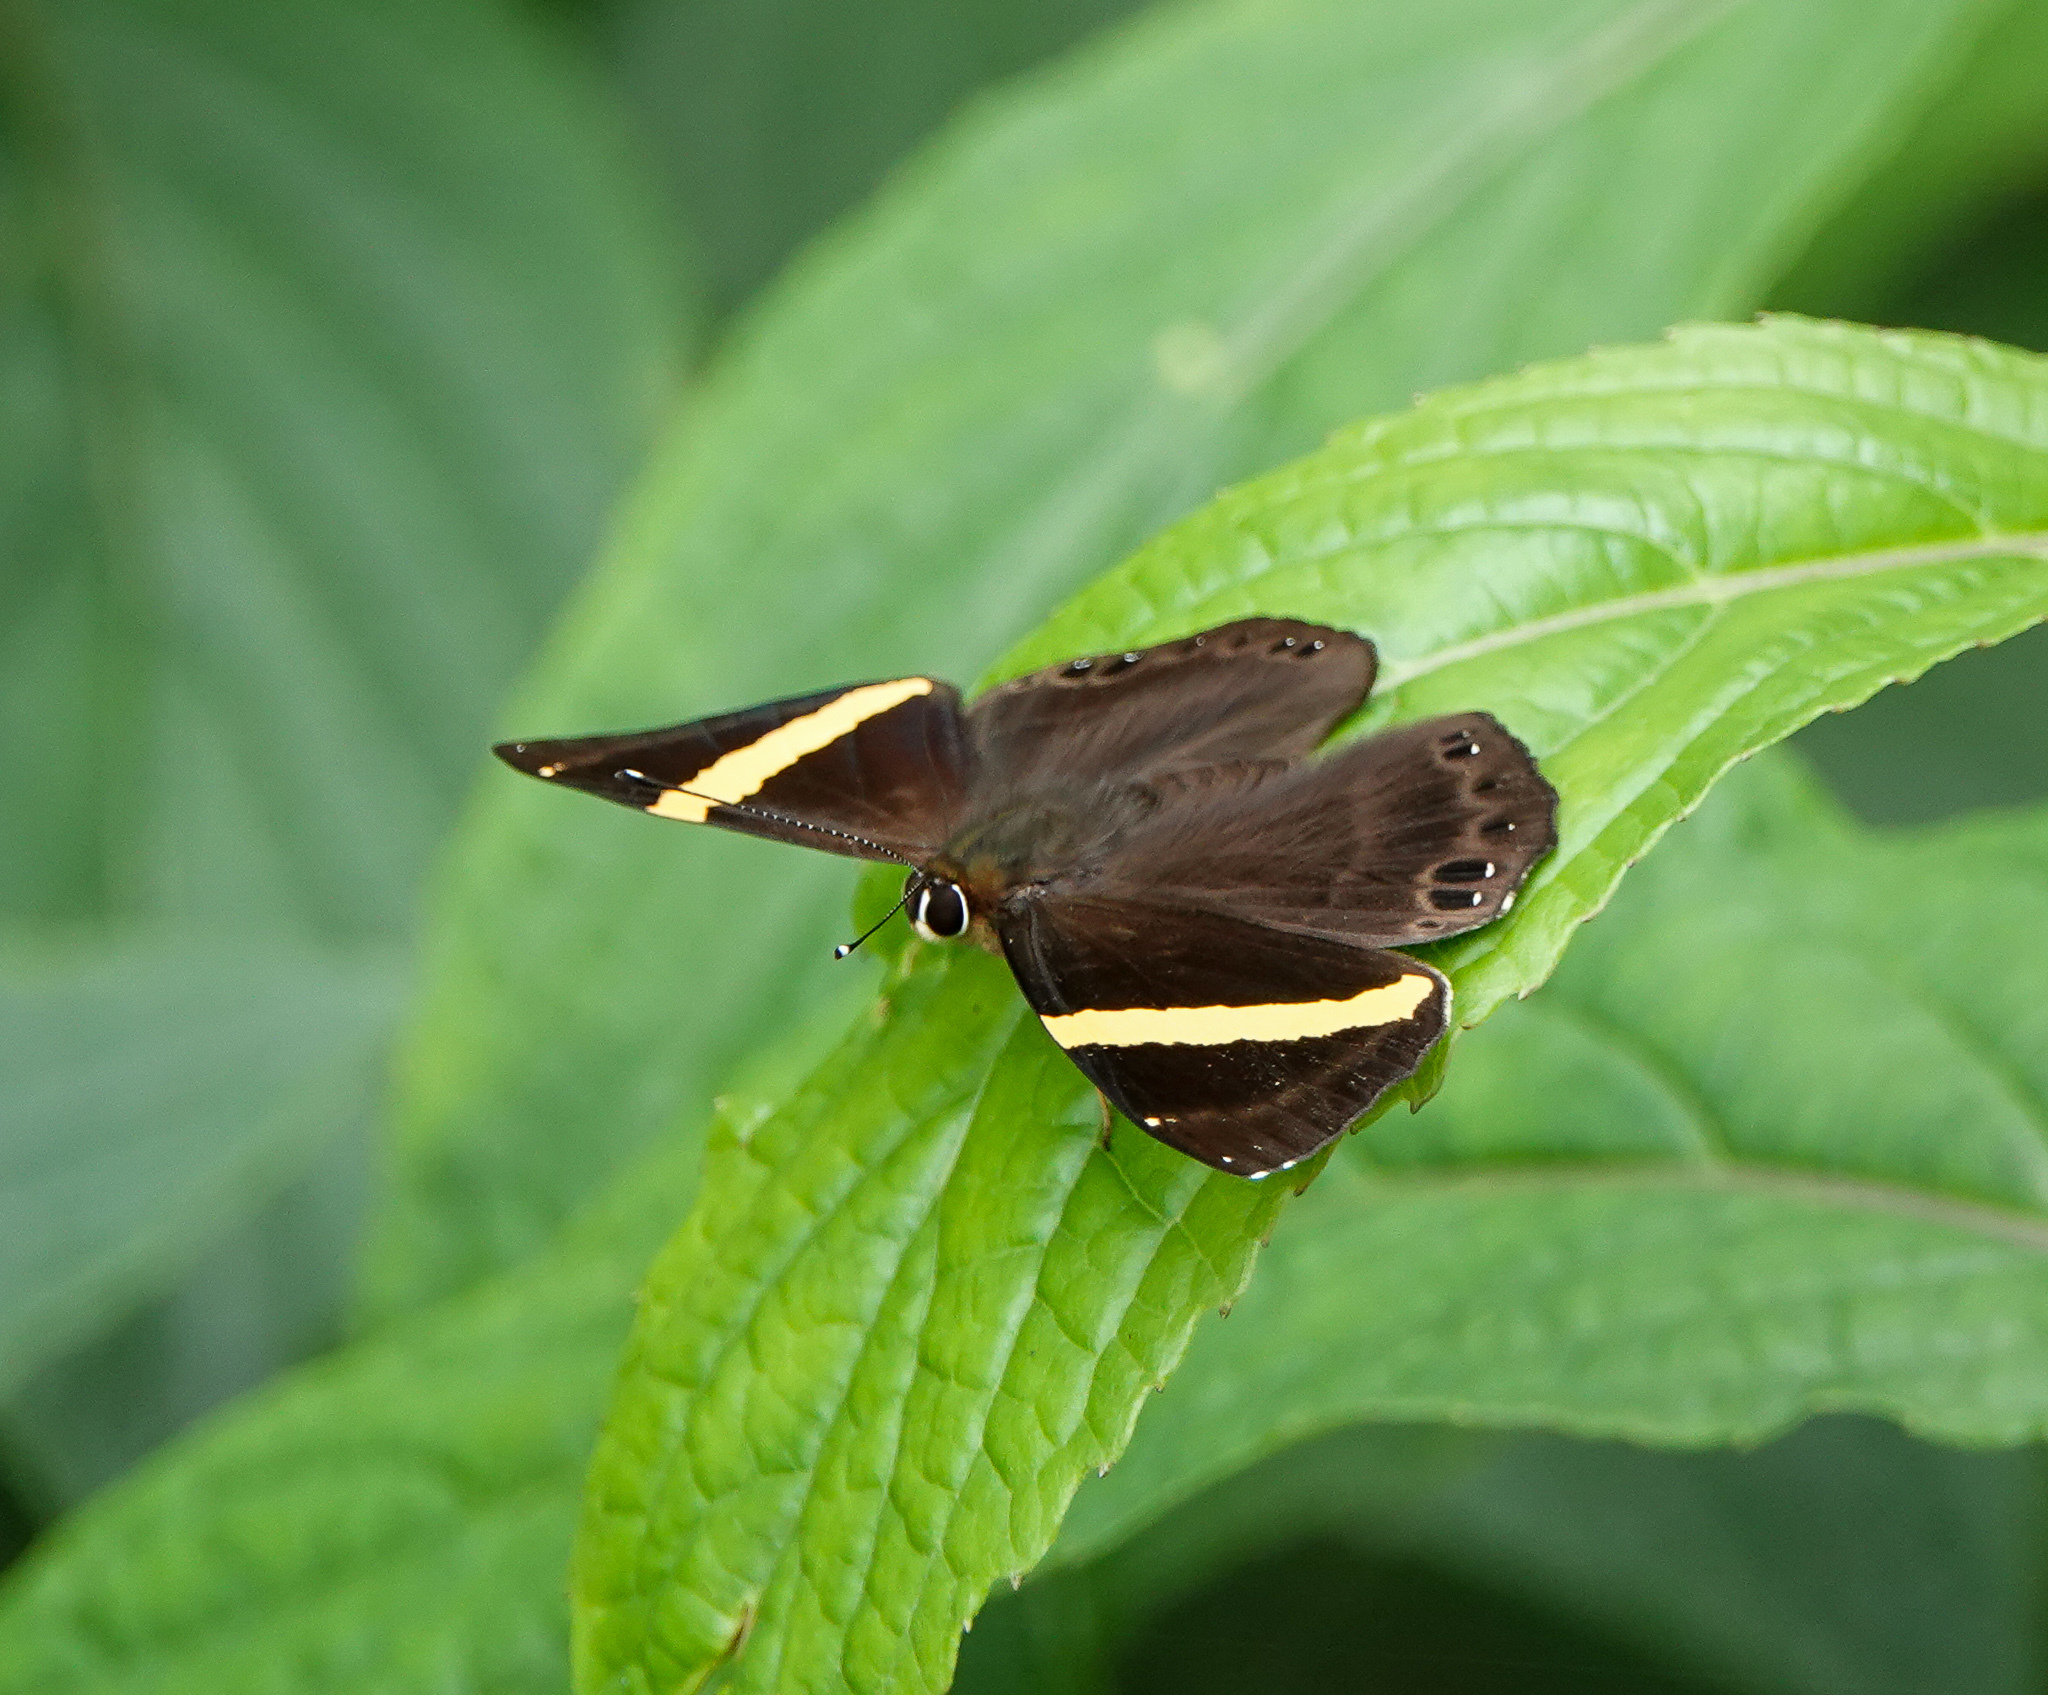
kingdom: Animalia
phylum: Arthropoda
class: Insecta
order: Lepidoptera
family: Lycaenidae
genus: Abisara
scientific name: Abisara fylla
